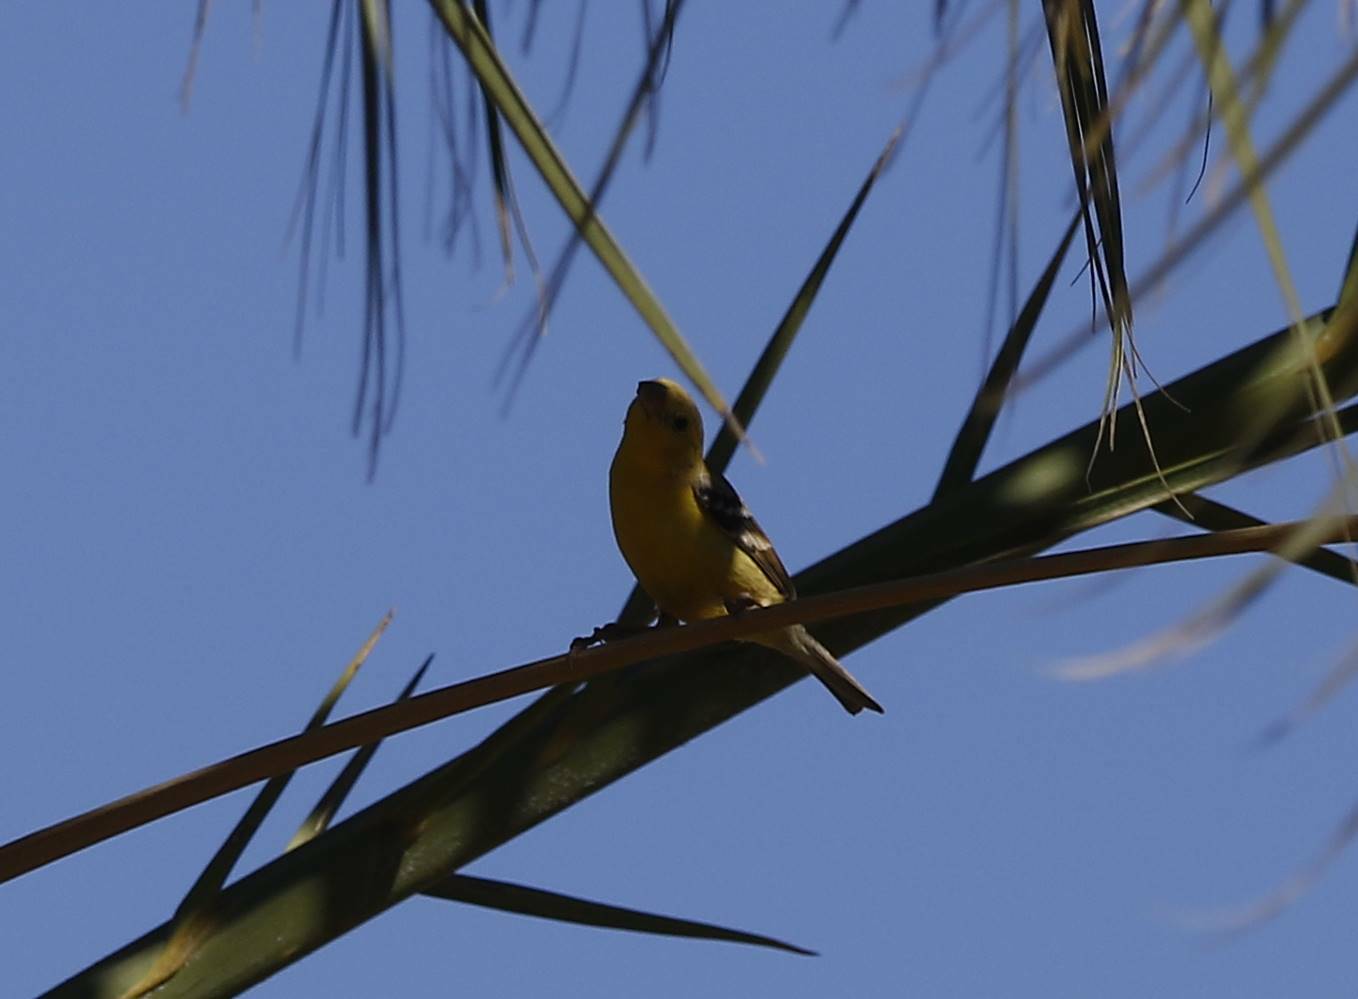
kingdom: Animalia
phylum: Chordata
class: Aves
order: Passeriformes
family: Passeridae
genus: Passer
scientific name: Passer luteus
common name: Sudan golden sparrow
